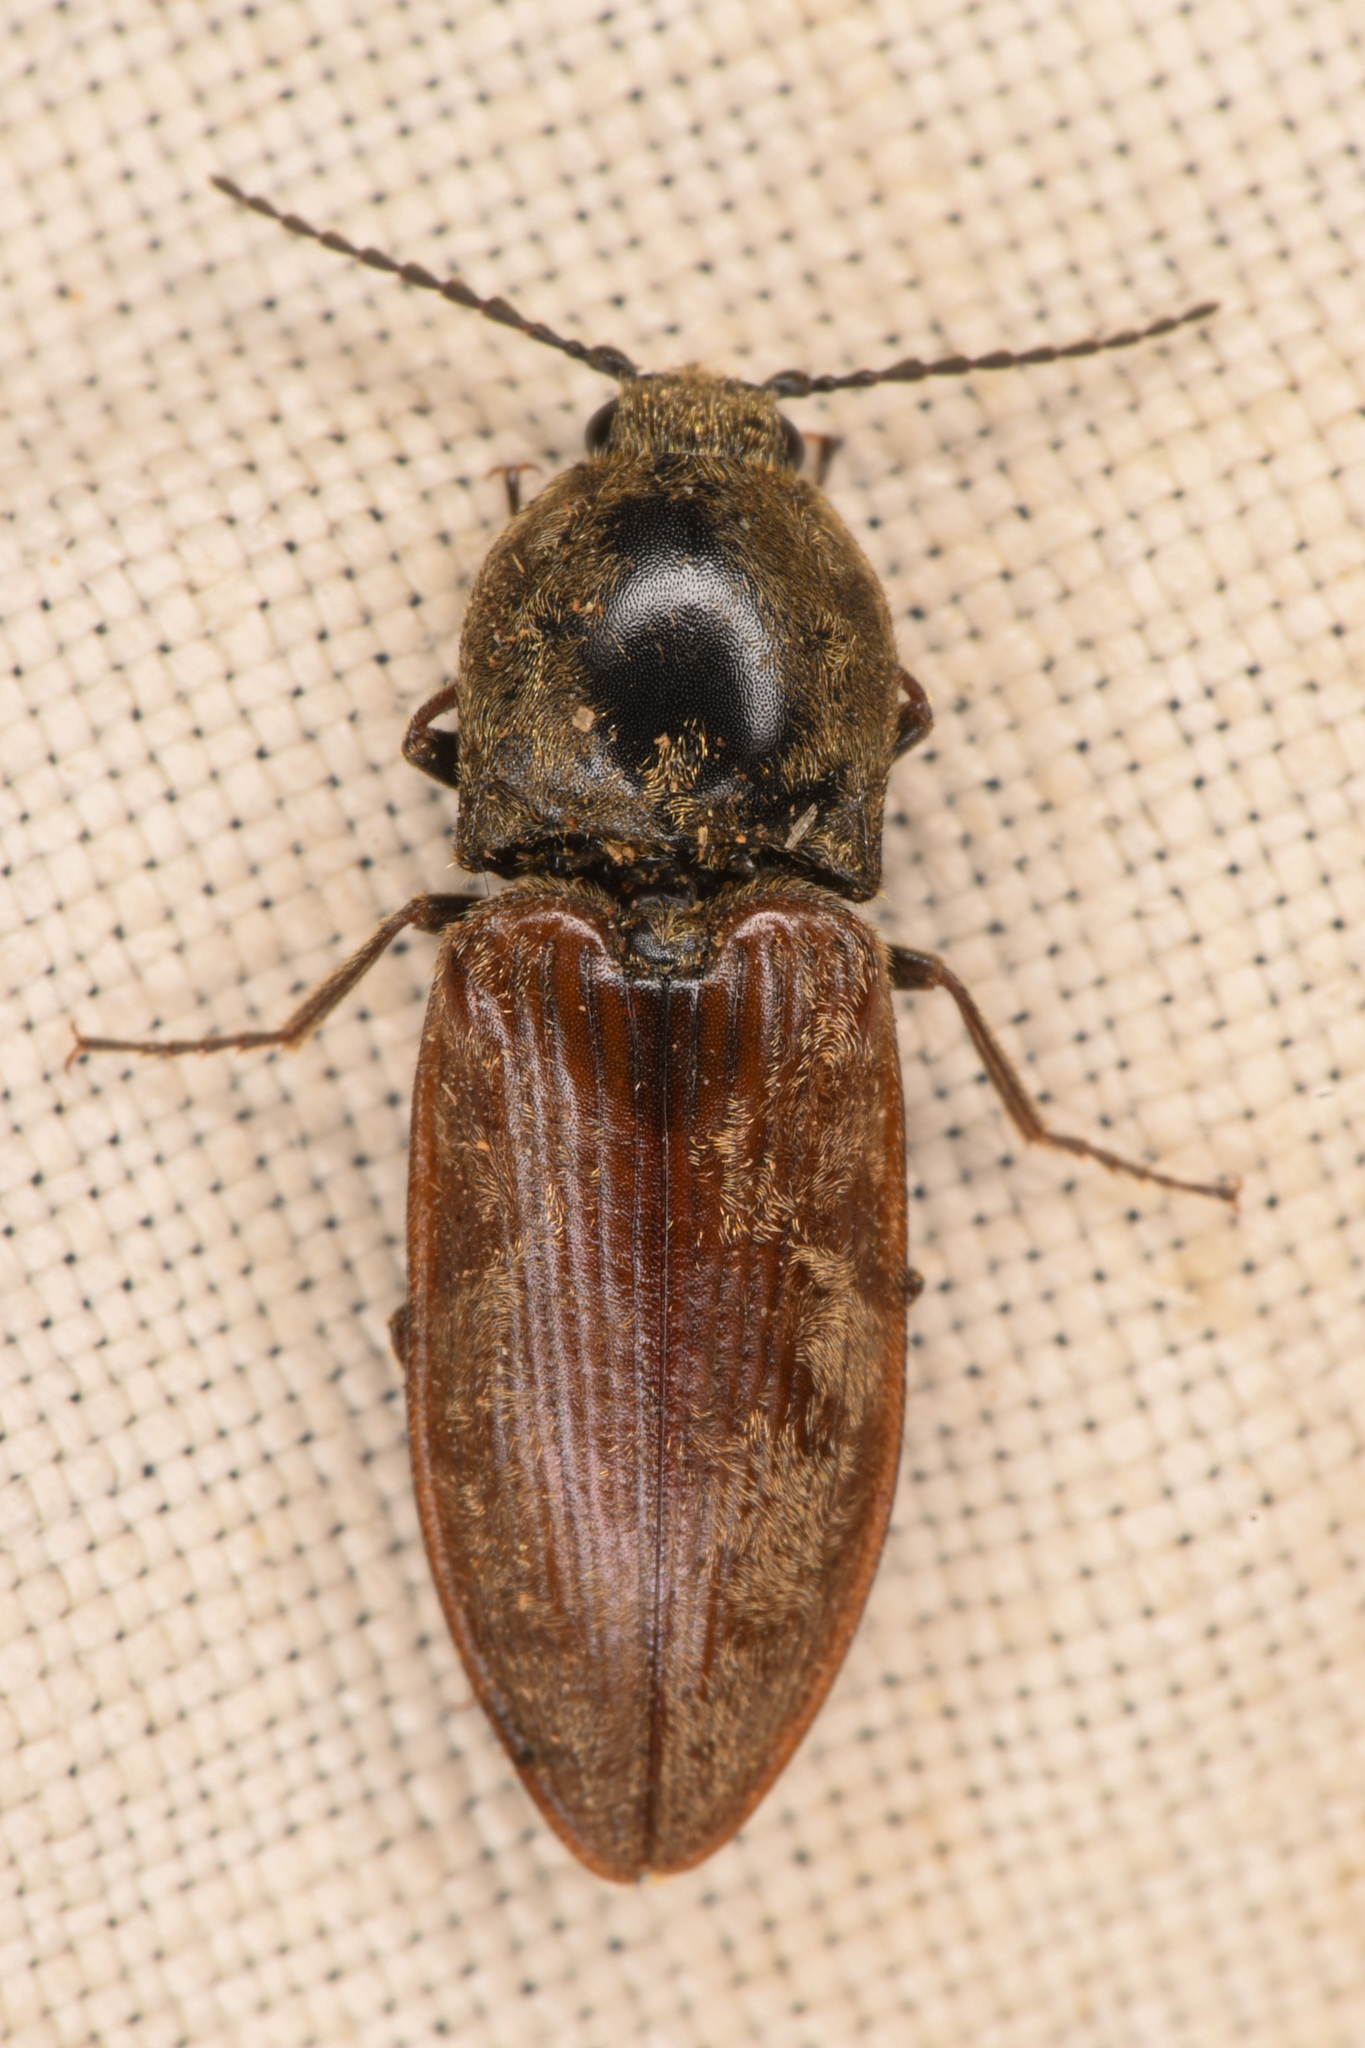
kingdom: Animalia
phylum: Arthropoda
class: Insecta
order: Coleoptera
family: Elateridae
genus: Prosternon
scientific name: Prosternon bombycinum
